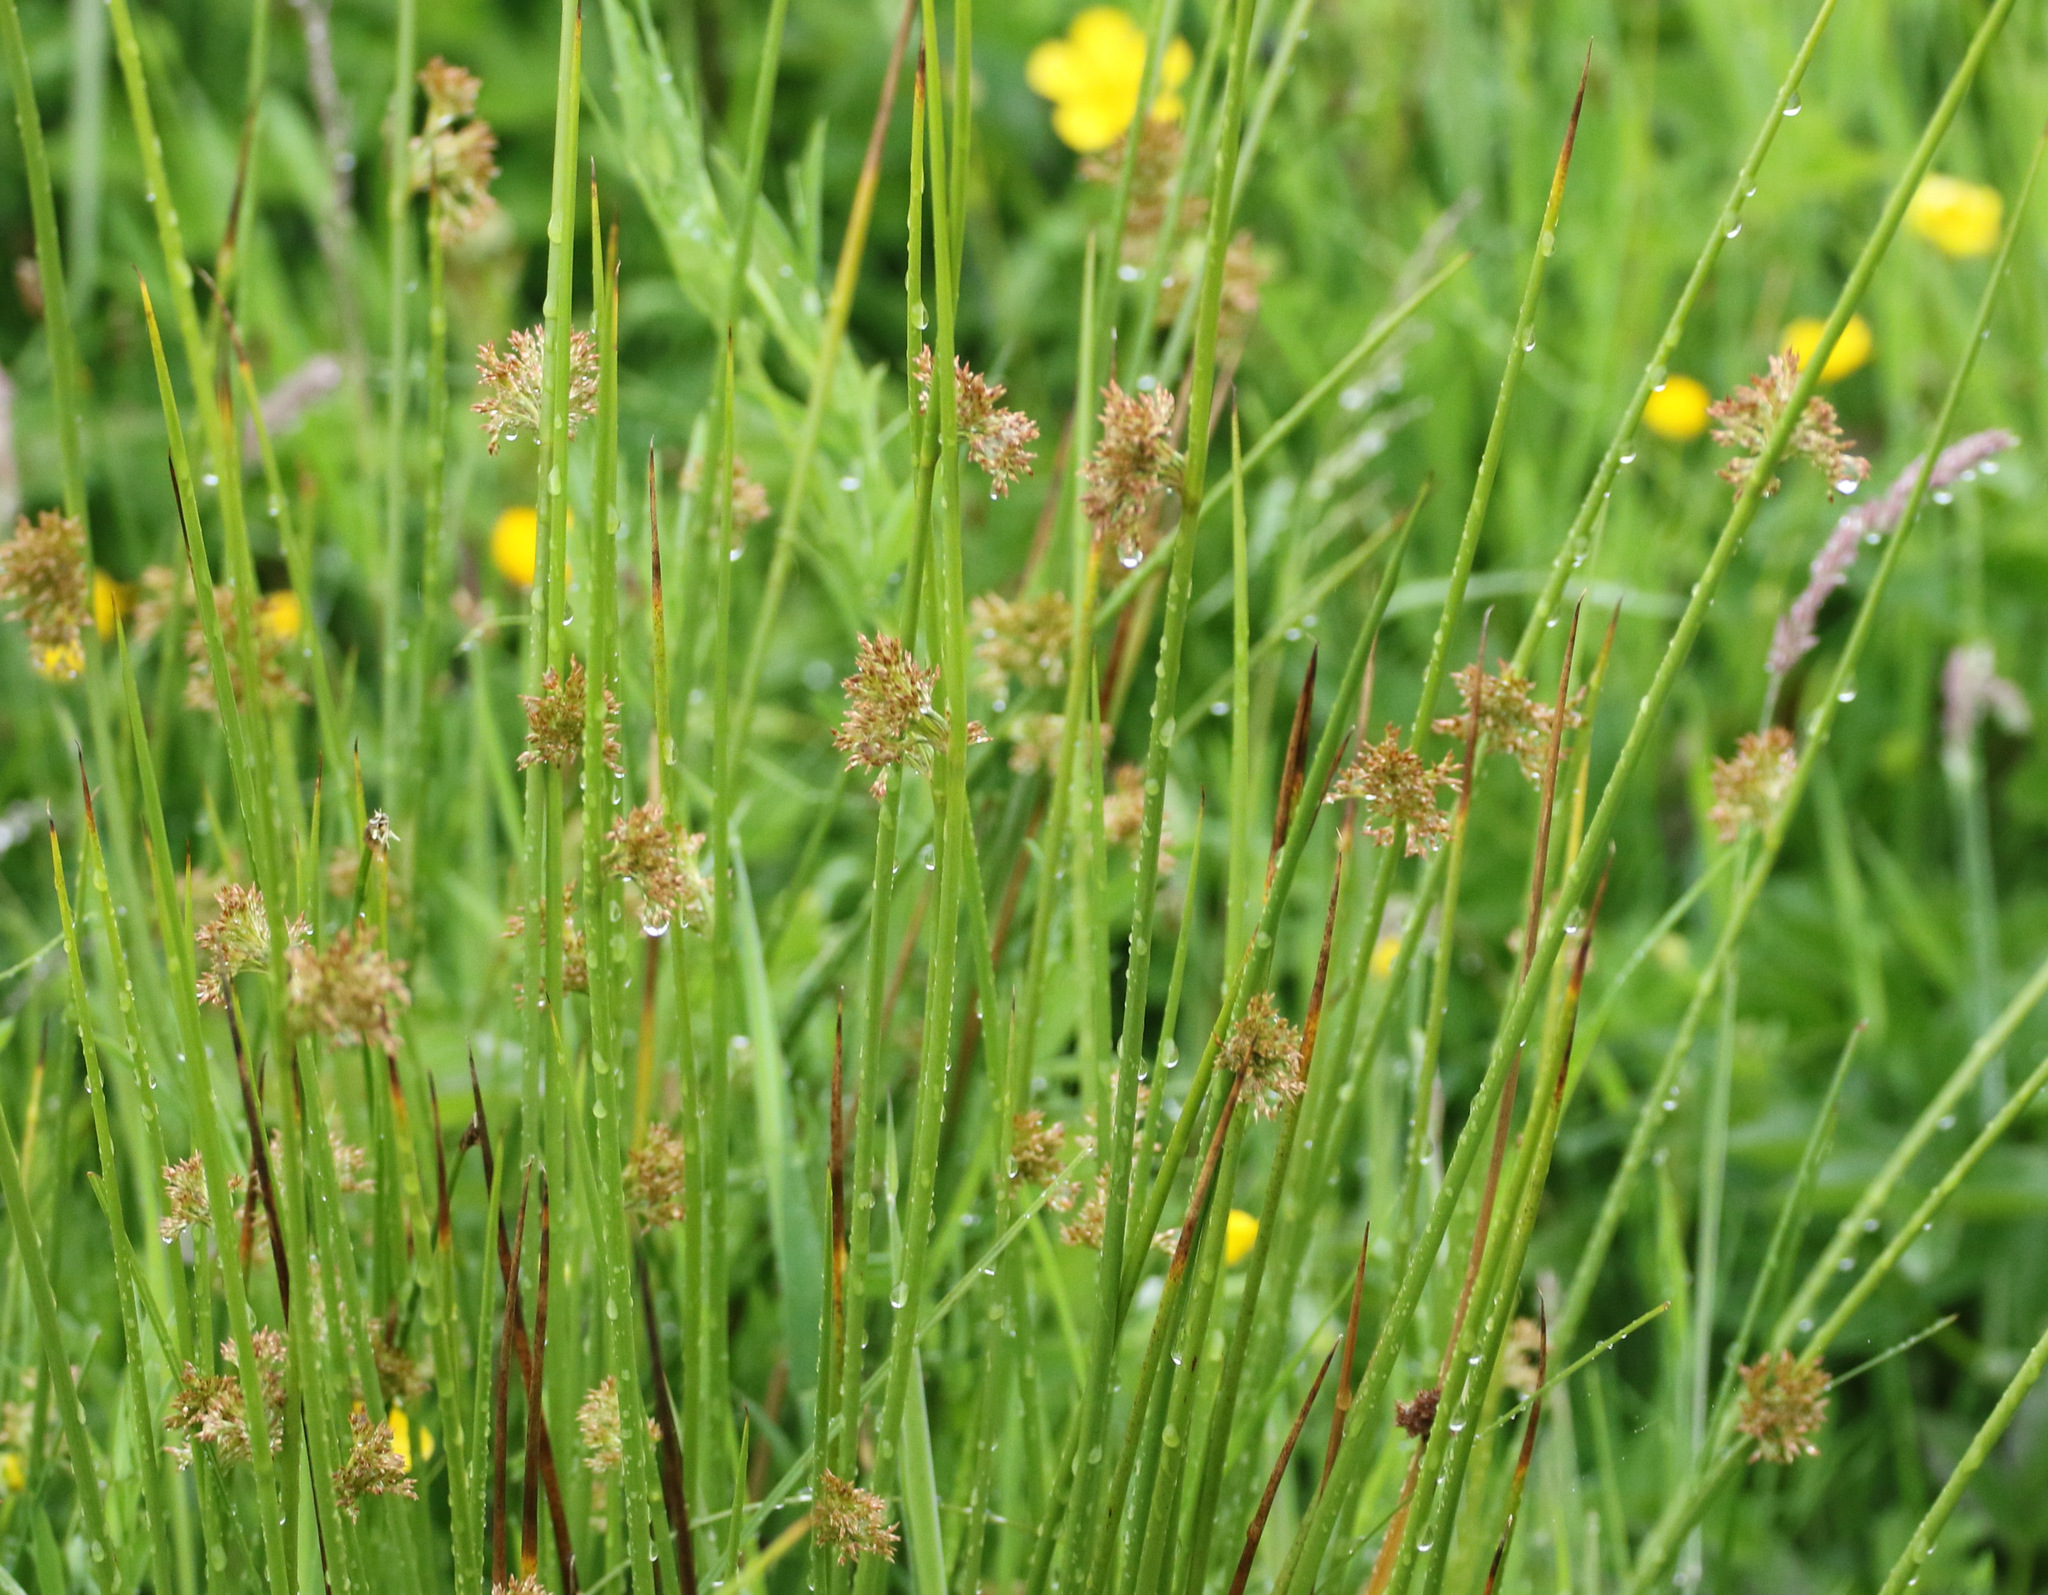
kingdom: Plantae
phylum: Tracheophyta
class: Liliopsida
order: Poales
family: Juncaceae
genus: Juncus
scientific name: Juncus effusus
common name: Soft rush
